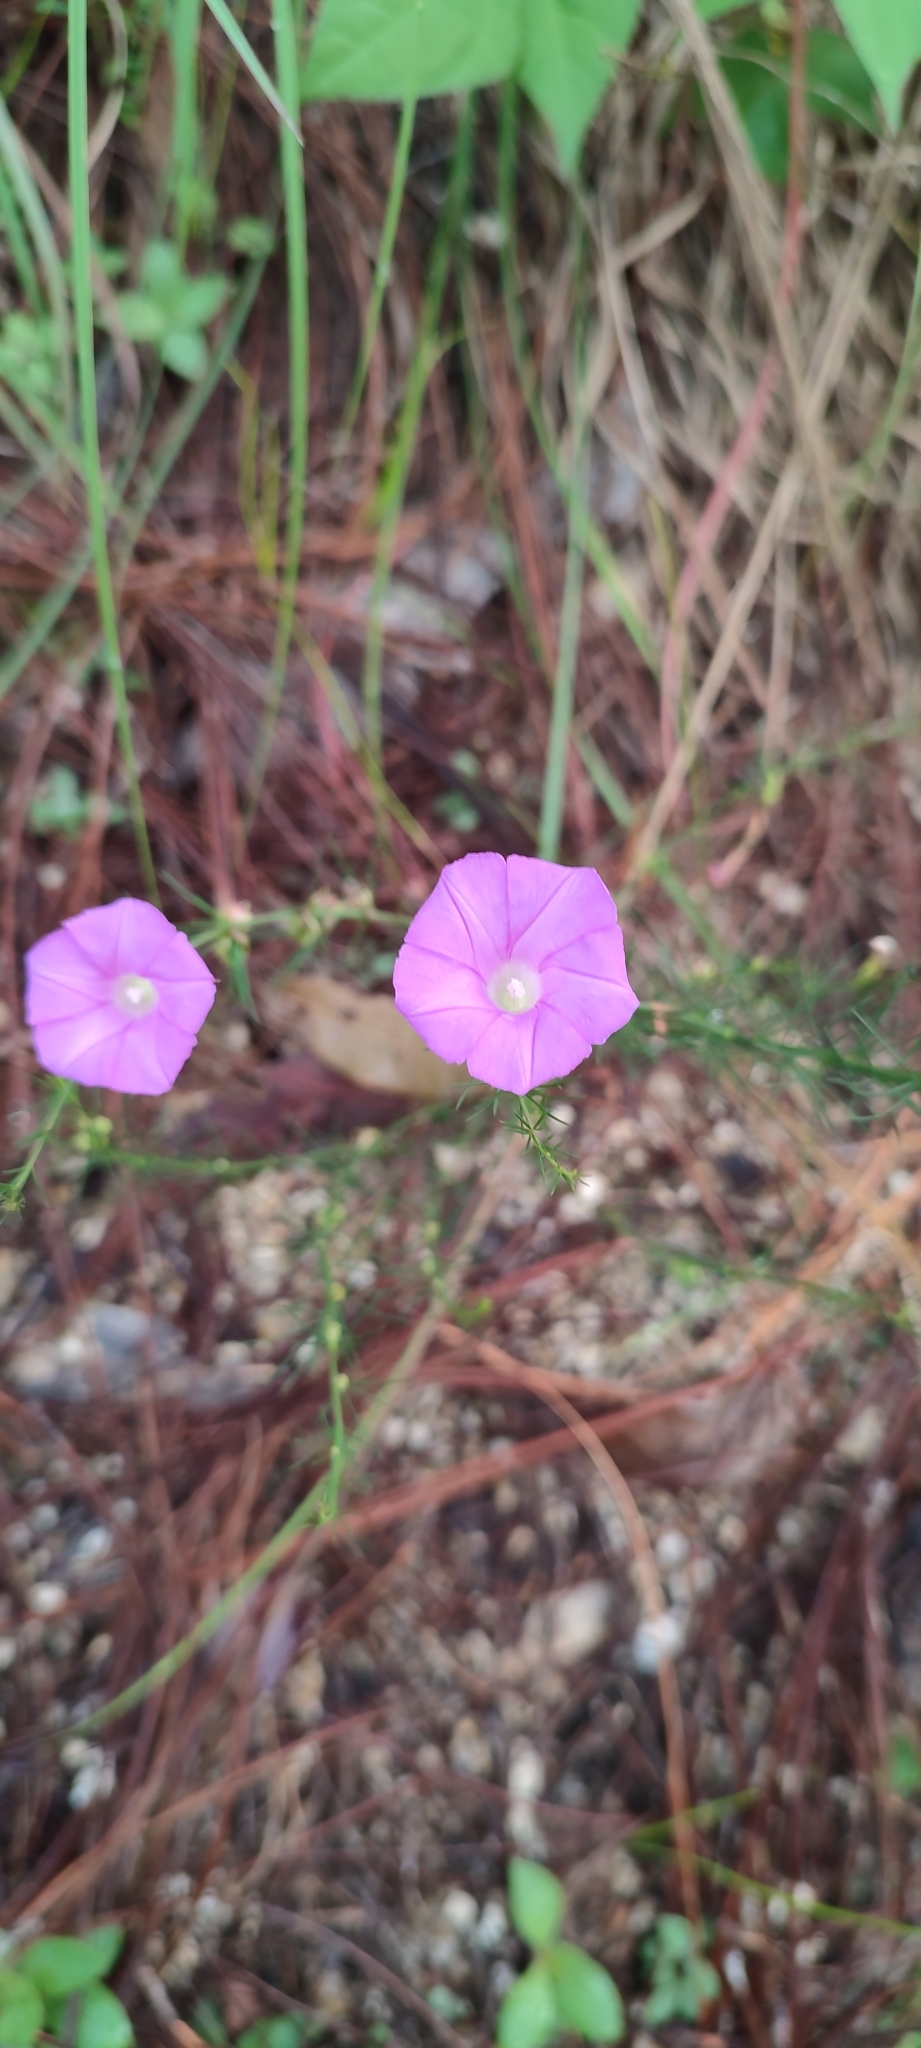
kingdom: Plantae
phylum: Tracheophyta
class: Magnoliopsida
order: Solanales
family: Convolvulaceae
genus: Ipomoea
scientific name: Ipomoea capillacea
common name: Purple morning-glory
